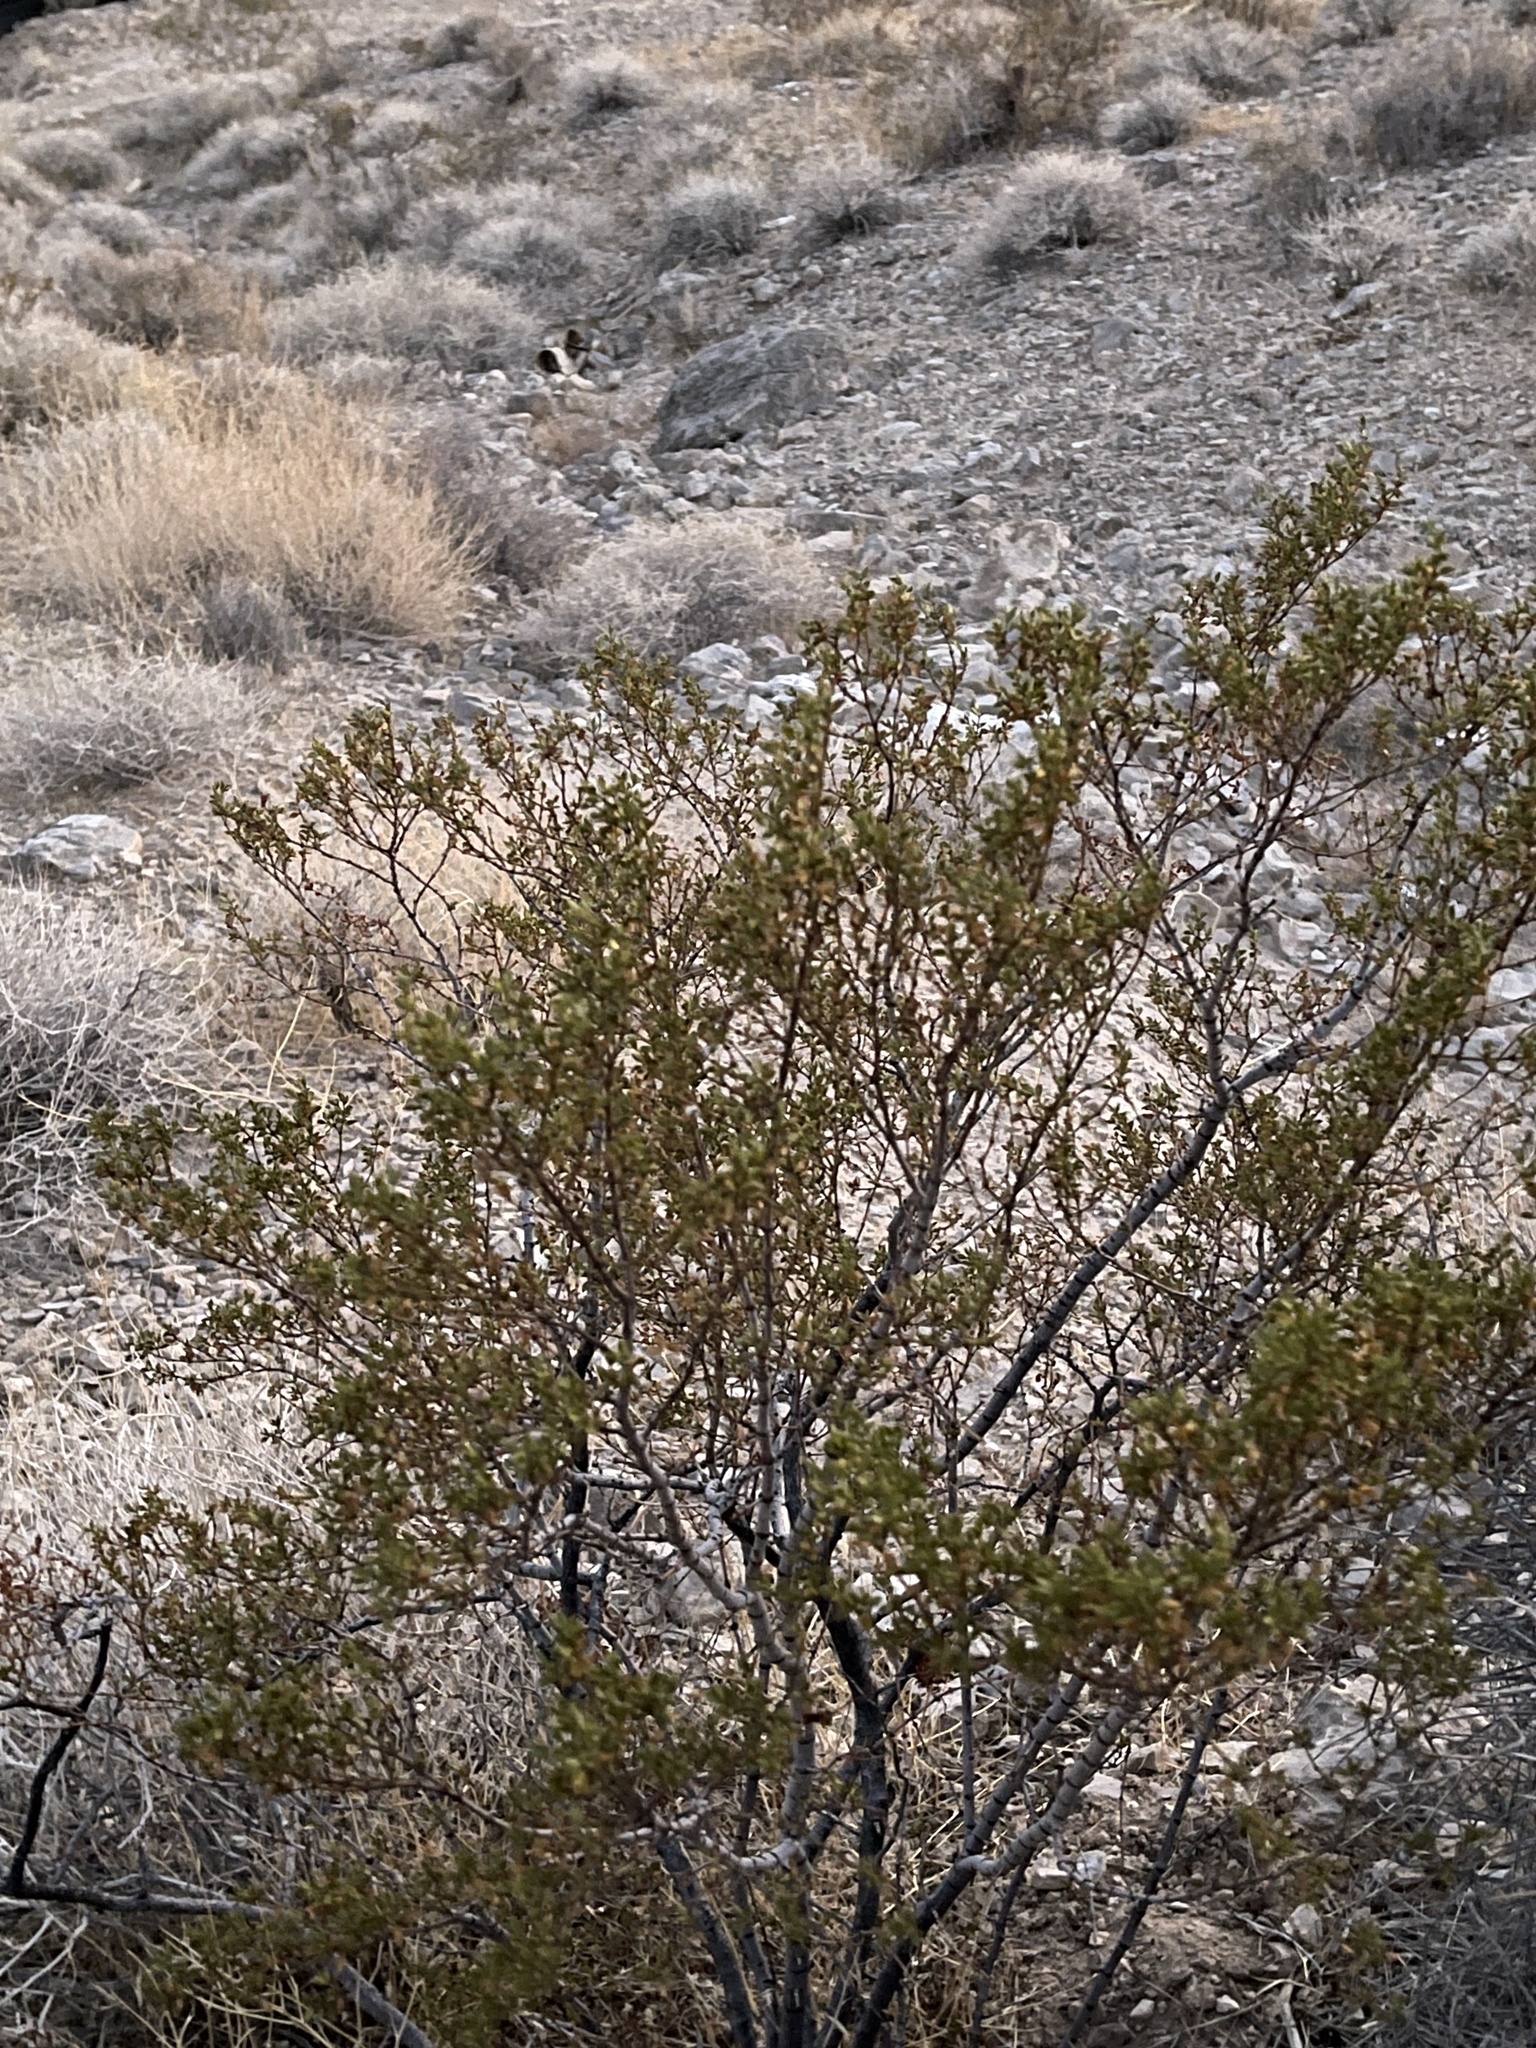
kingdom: Plantae
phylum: Tracheophyta
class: Magnoliopsida
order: Zygophyllales
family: Zygophyllaceae
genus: Larrea
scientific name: Larrea tridentata
